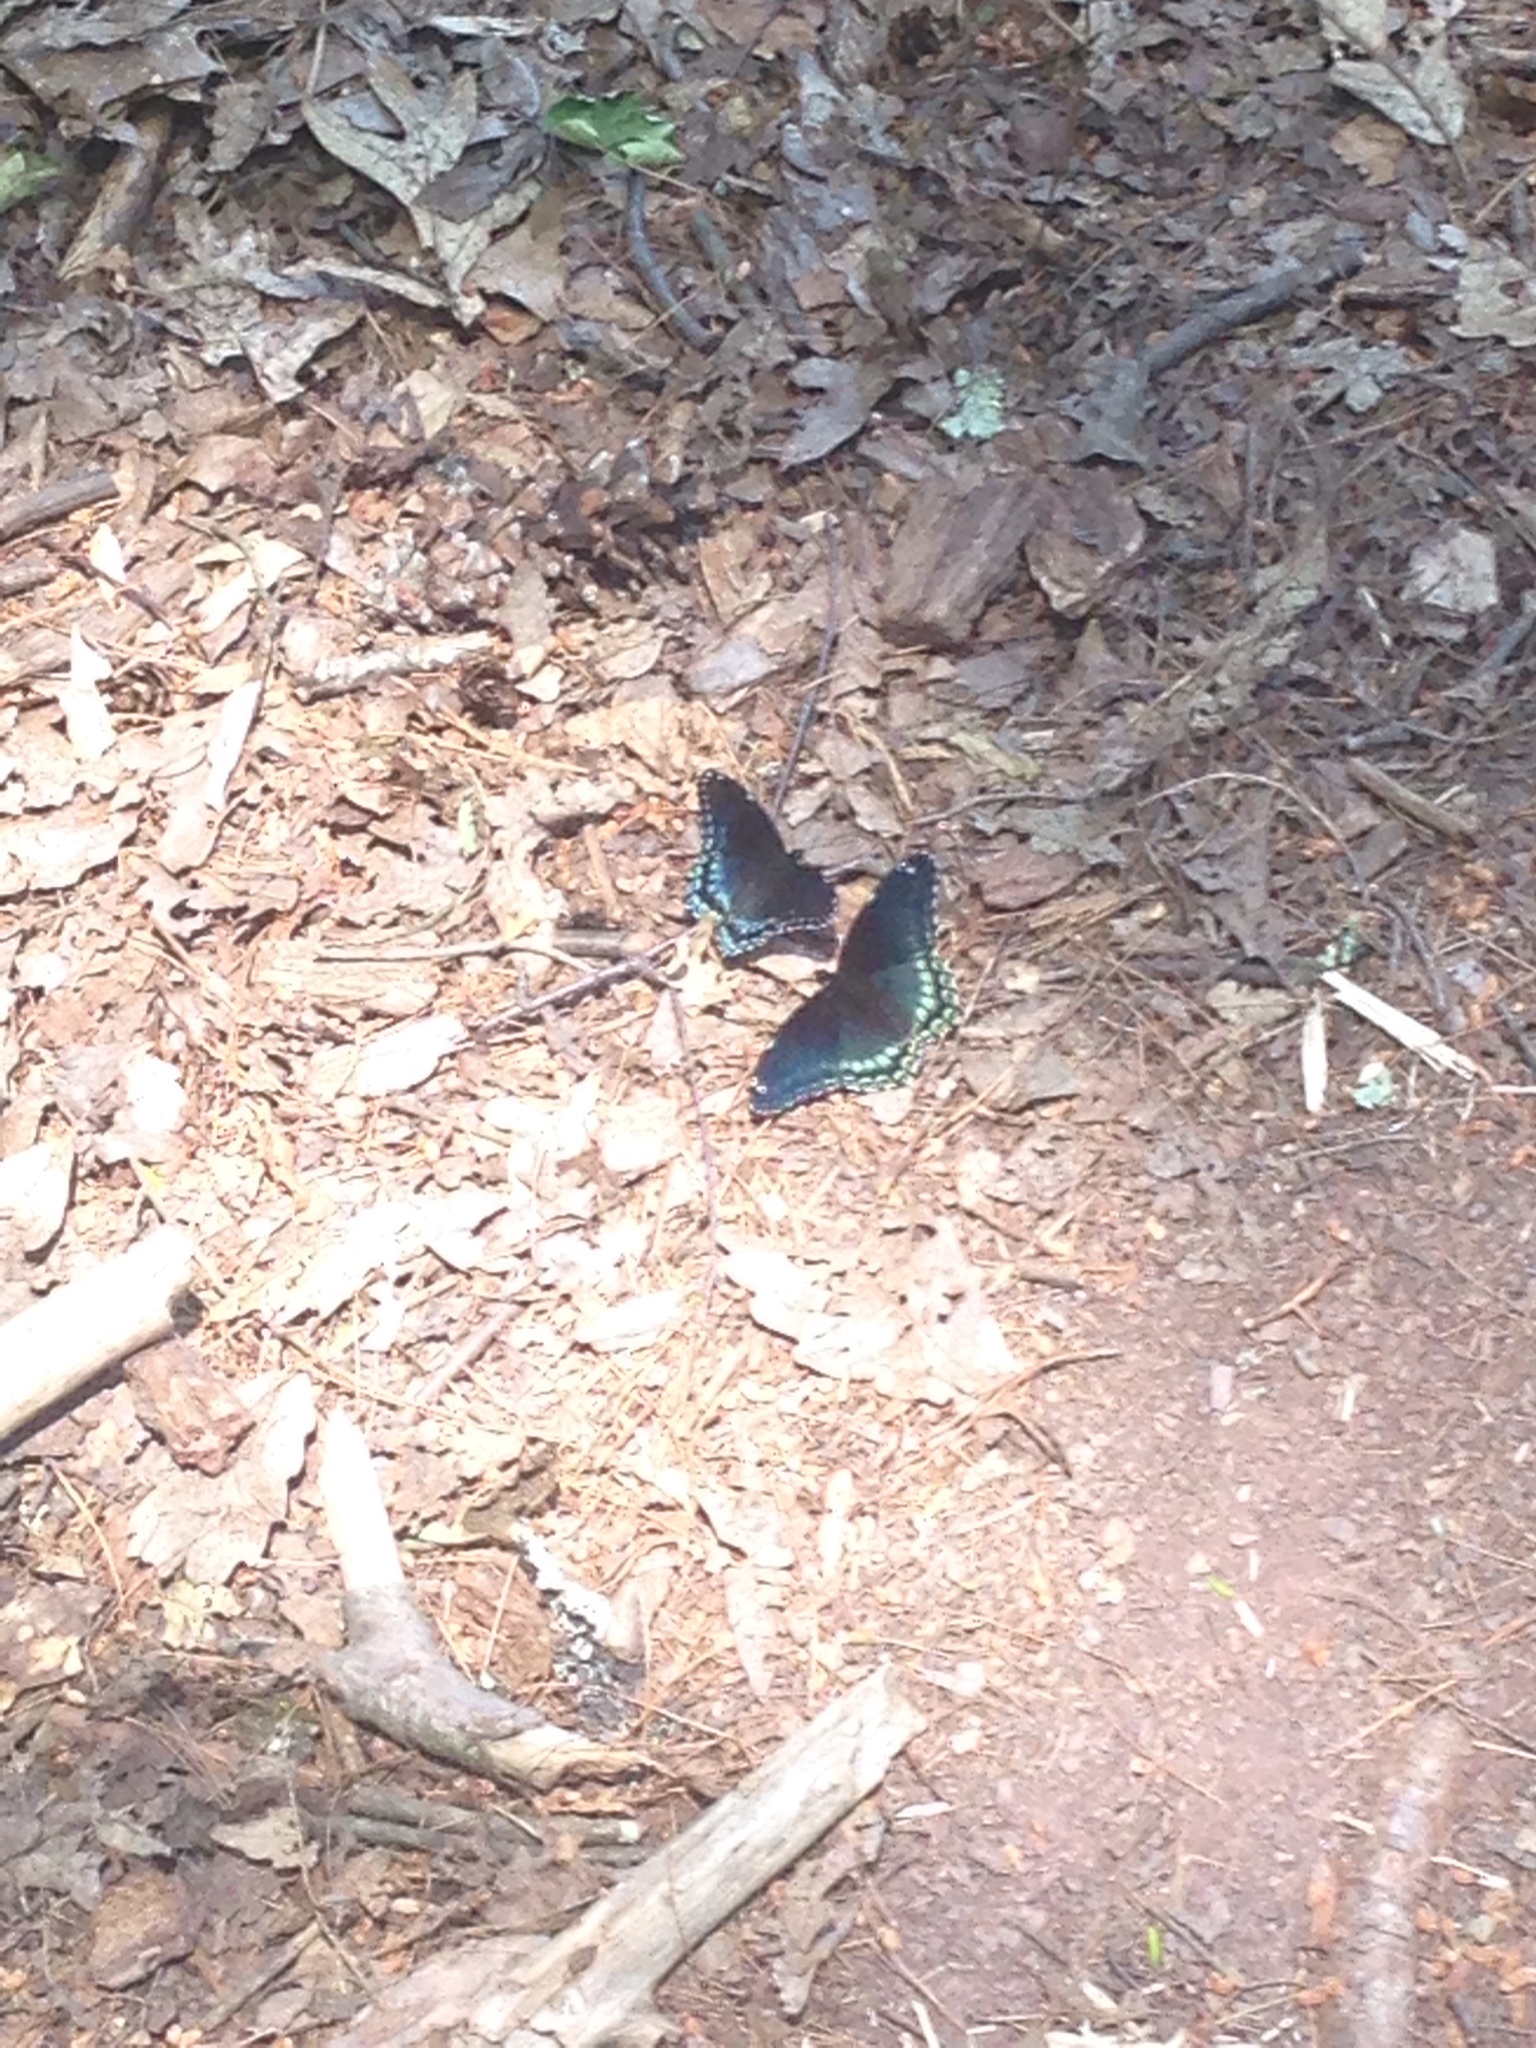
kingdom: Animalia
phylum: Arthropoda
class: Insecta
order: Lepidoptera
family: Nymphalidae
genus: Limenitis
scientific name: Limenitis arthemis
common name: Red-spotted admiral
